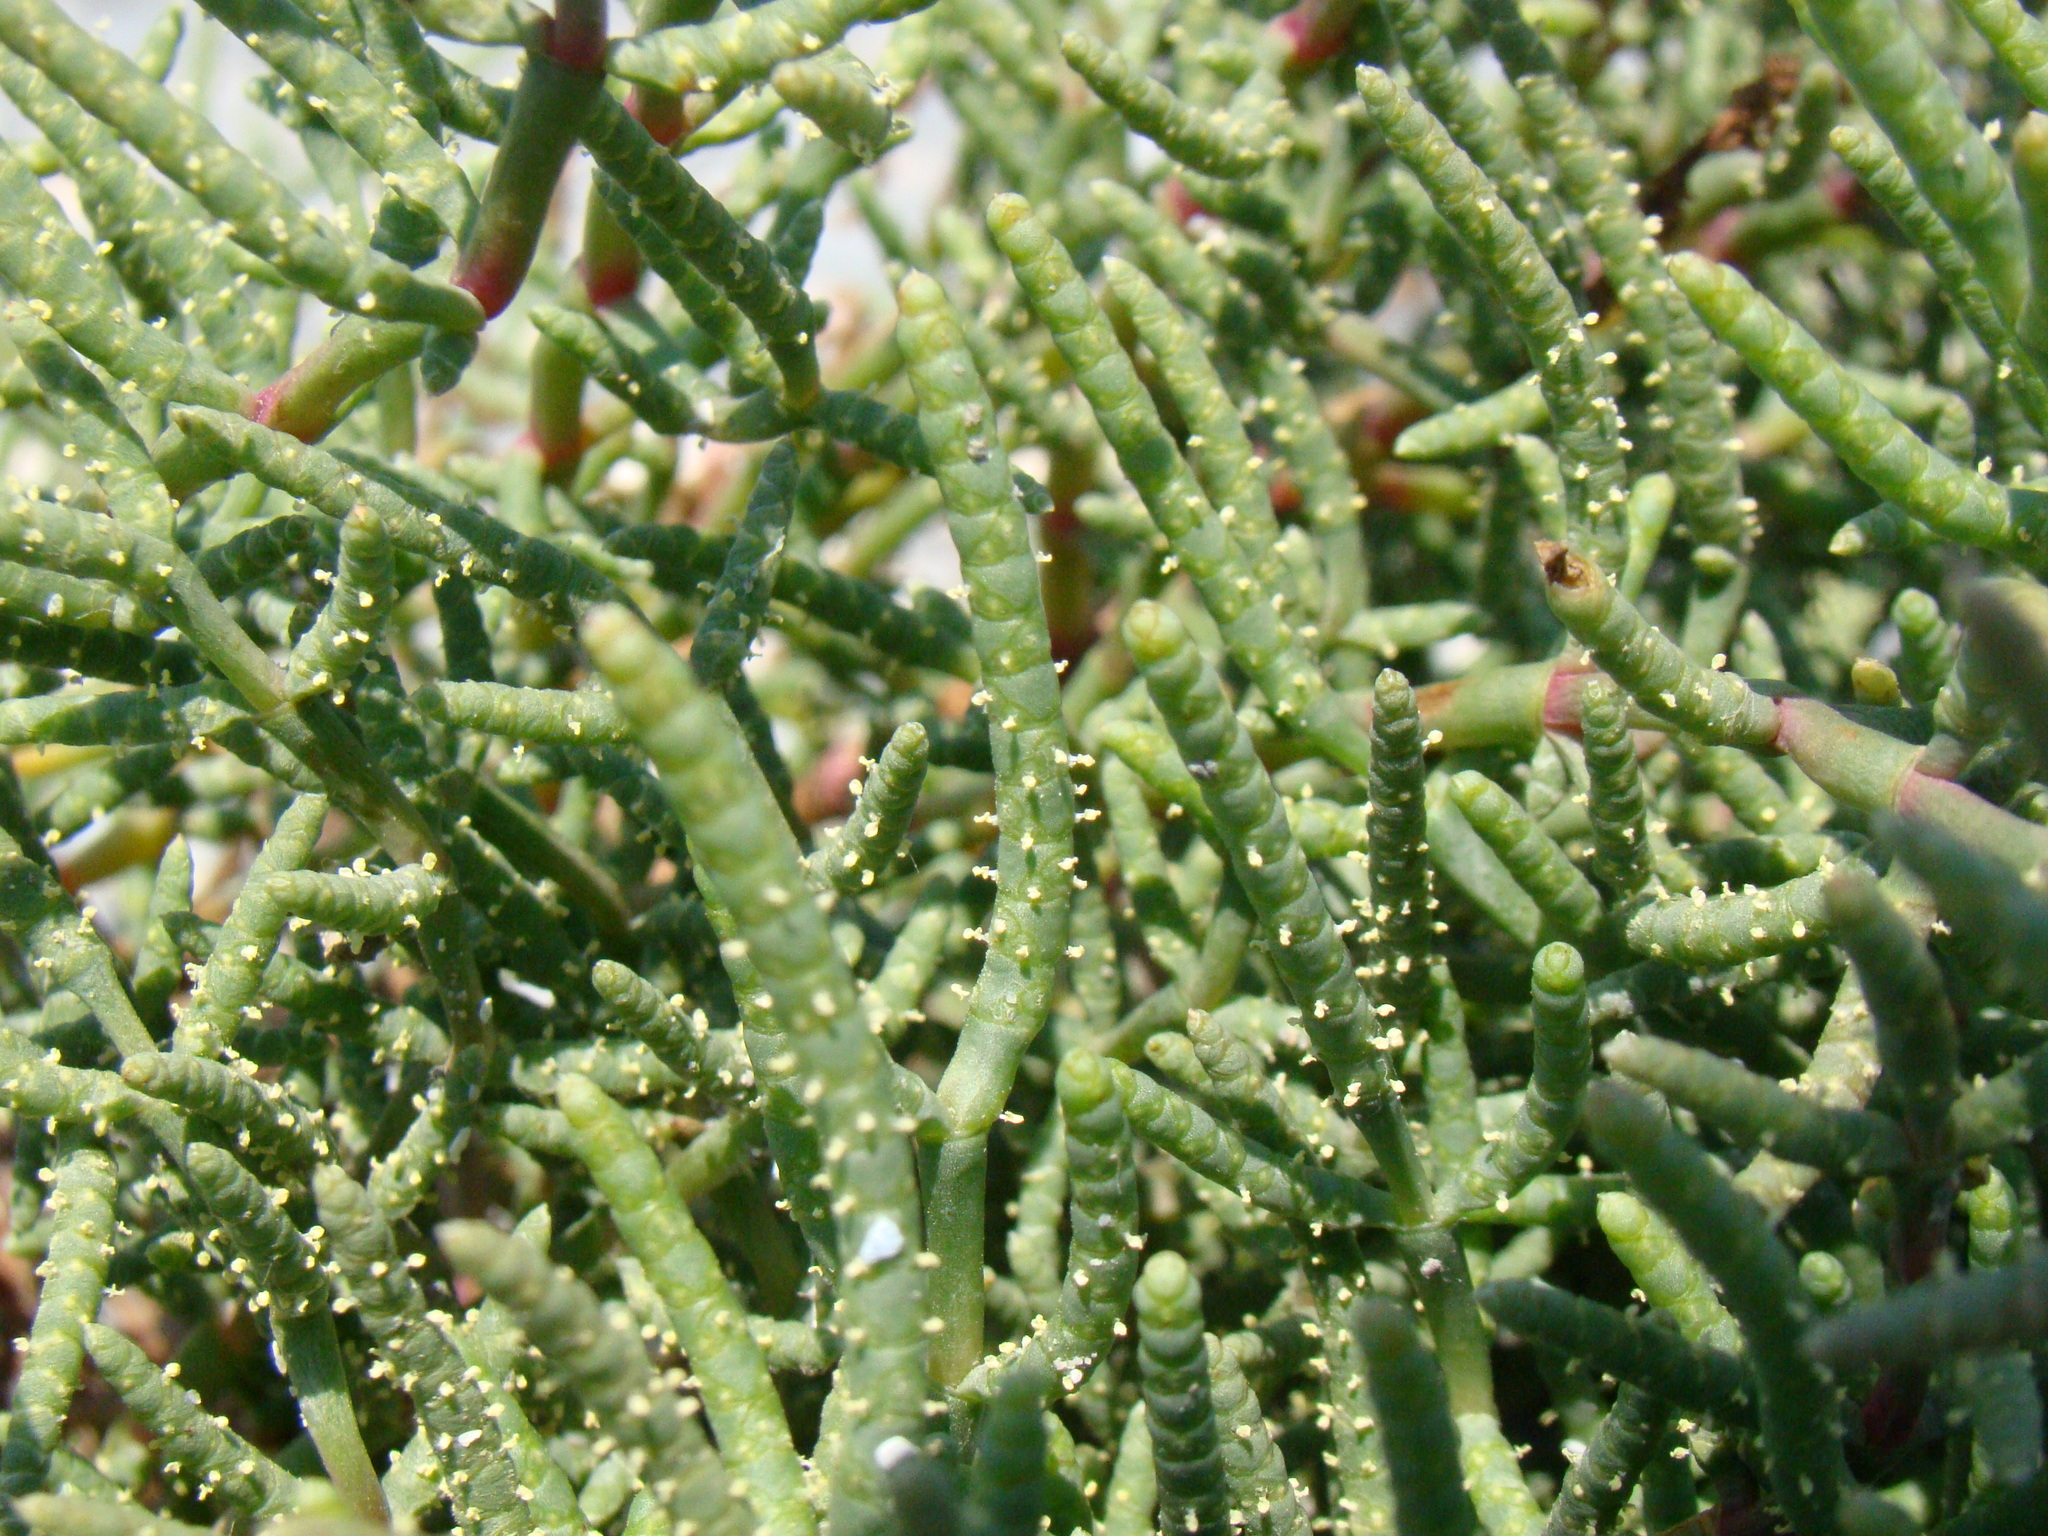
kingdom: Plantae
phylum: Tracheophyta
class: Magnoliopsida
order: Caryophyllales
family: Amaranthaceae
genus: Salicornia
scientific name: Salicornia perennans
